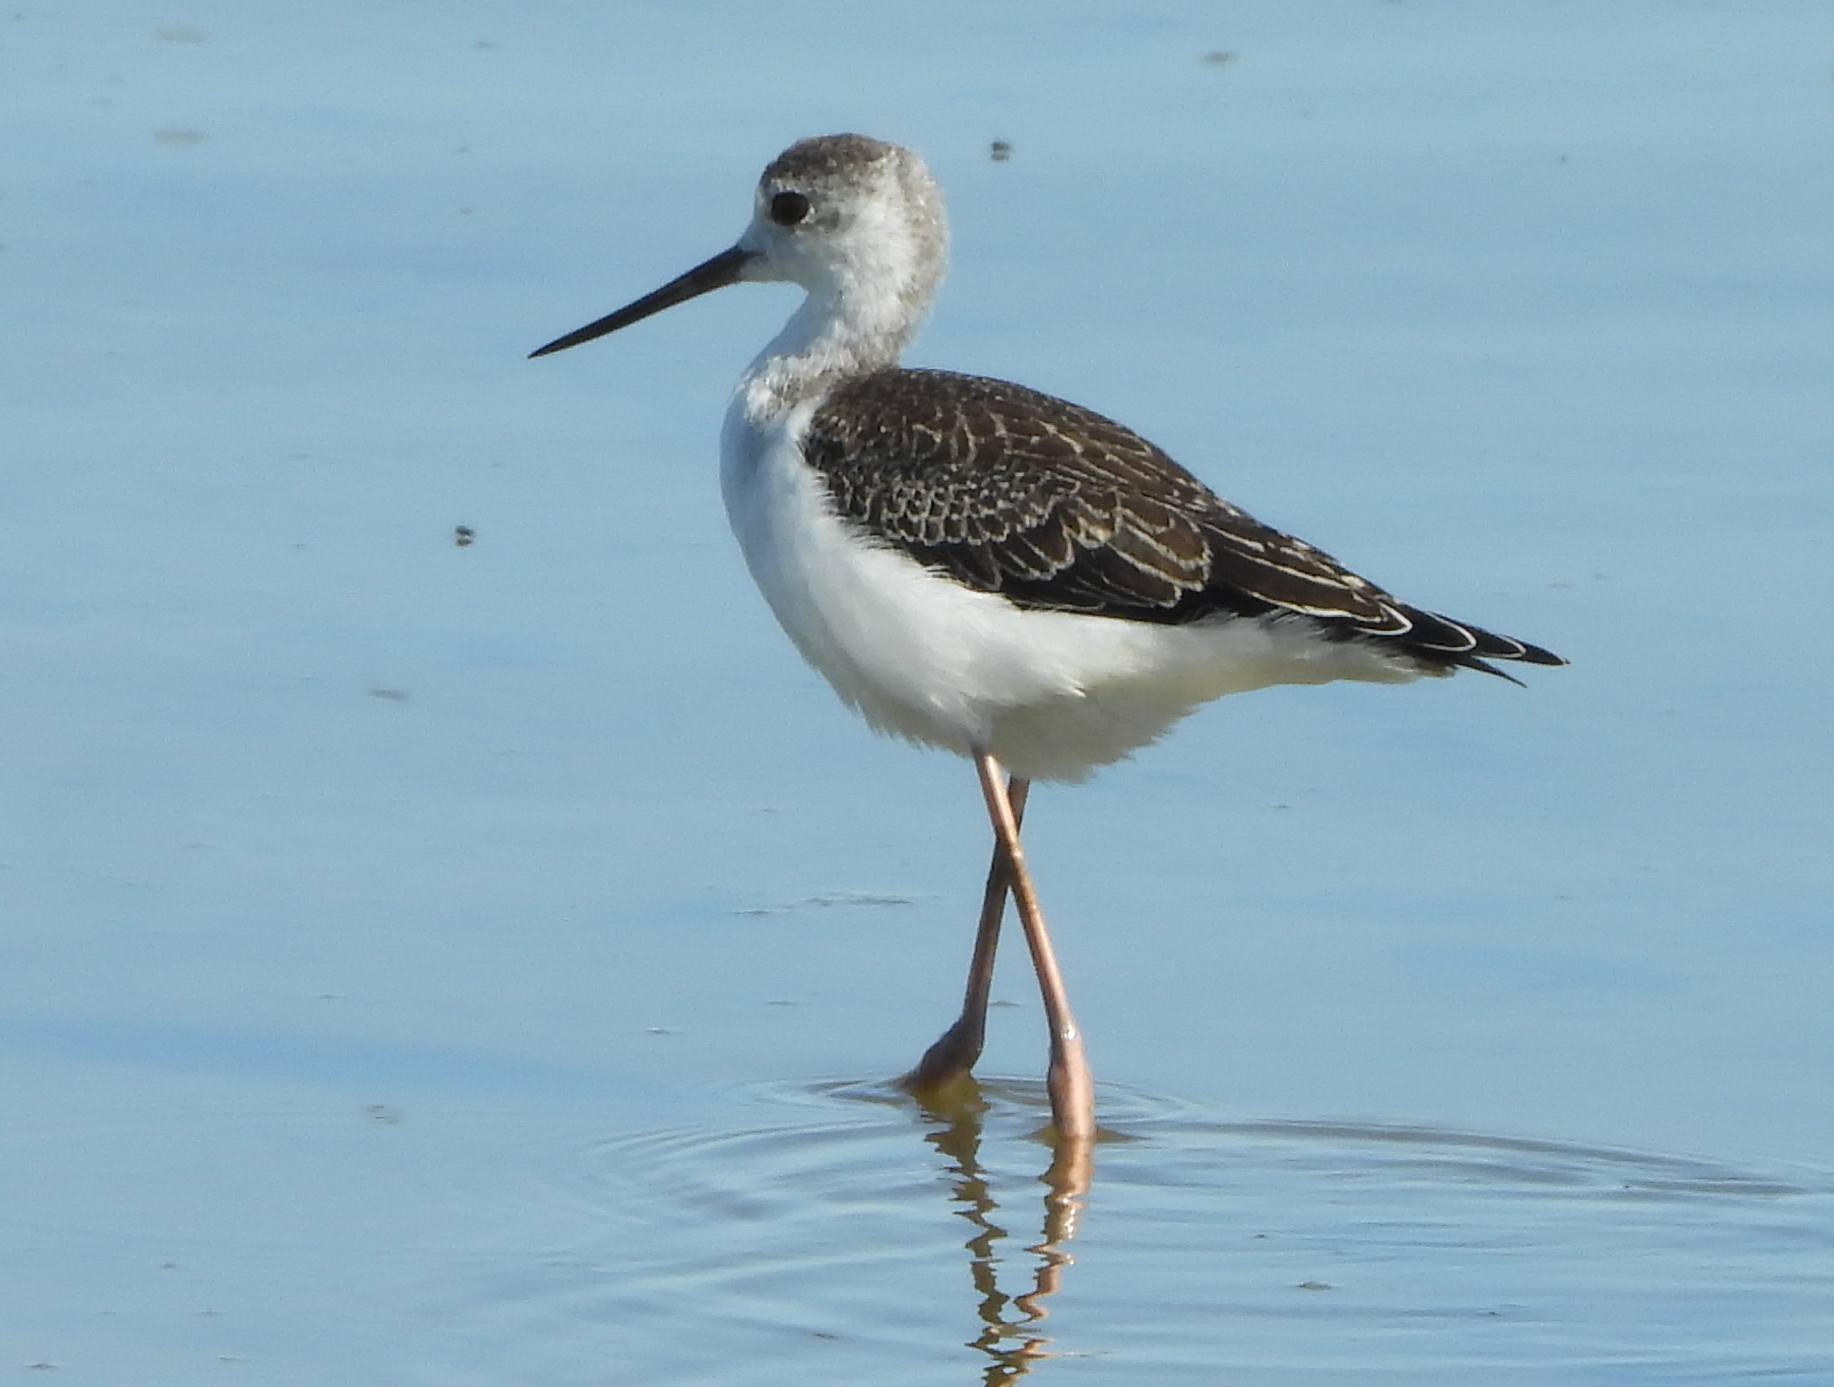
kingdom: Animalia
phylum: Chordata
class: Aves
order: Charadriiformes
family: Recurvirostridae
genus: Himantopus
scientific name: Himantopus himantopus
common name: Black-winged stilt
